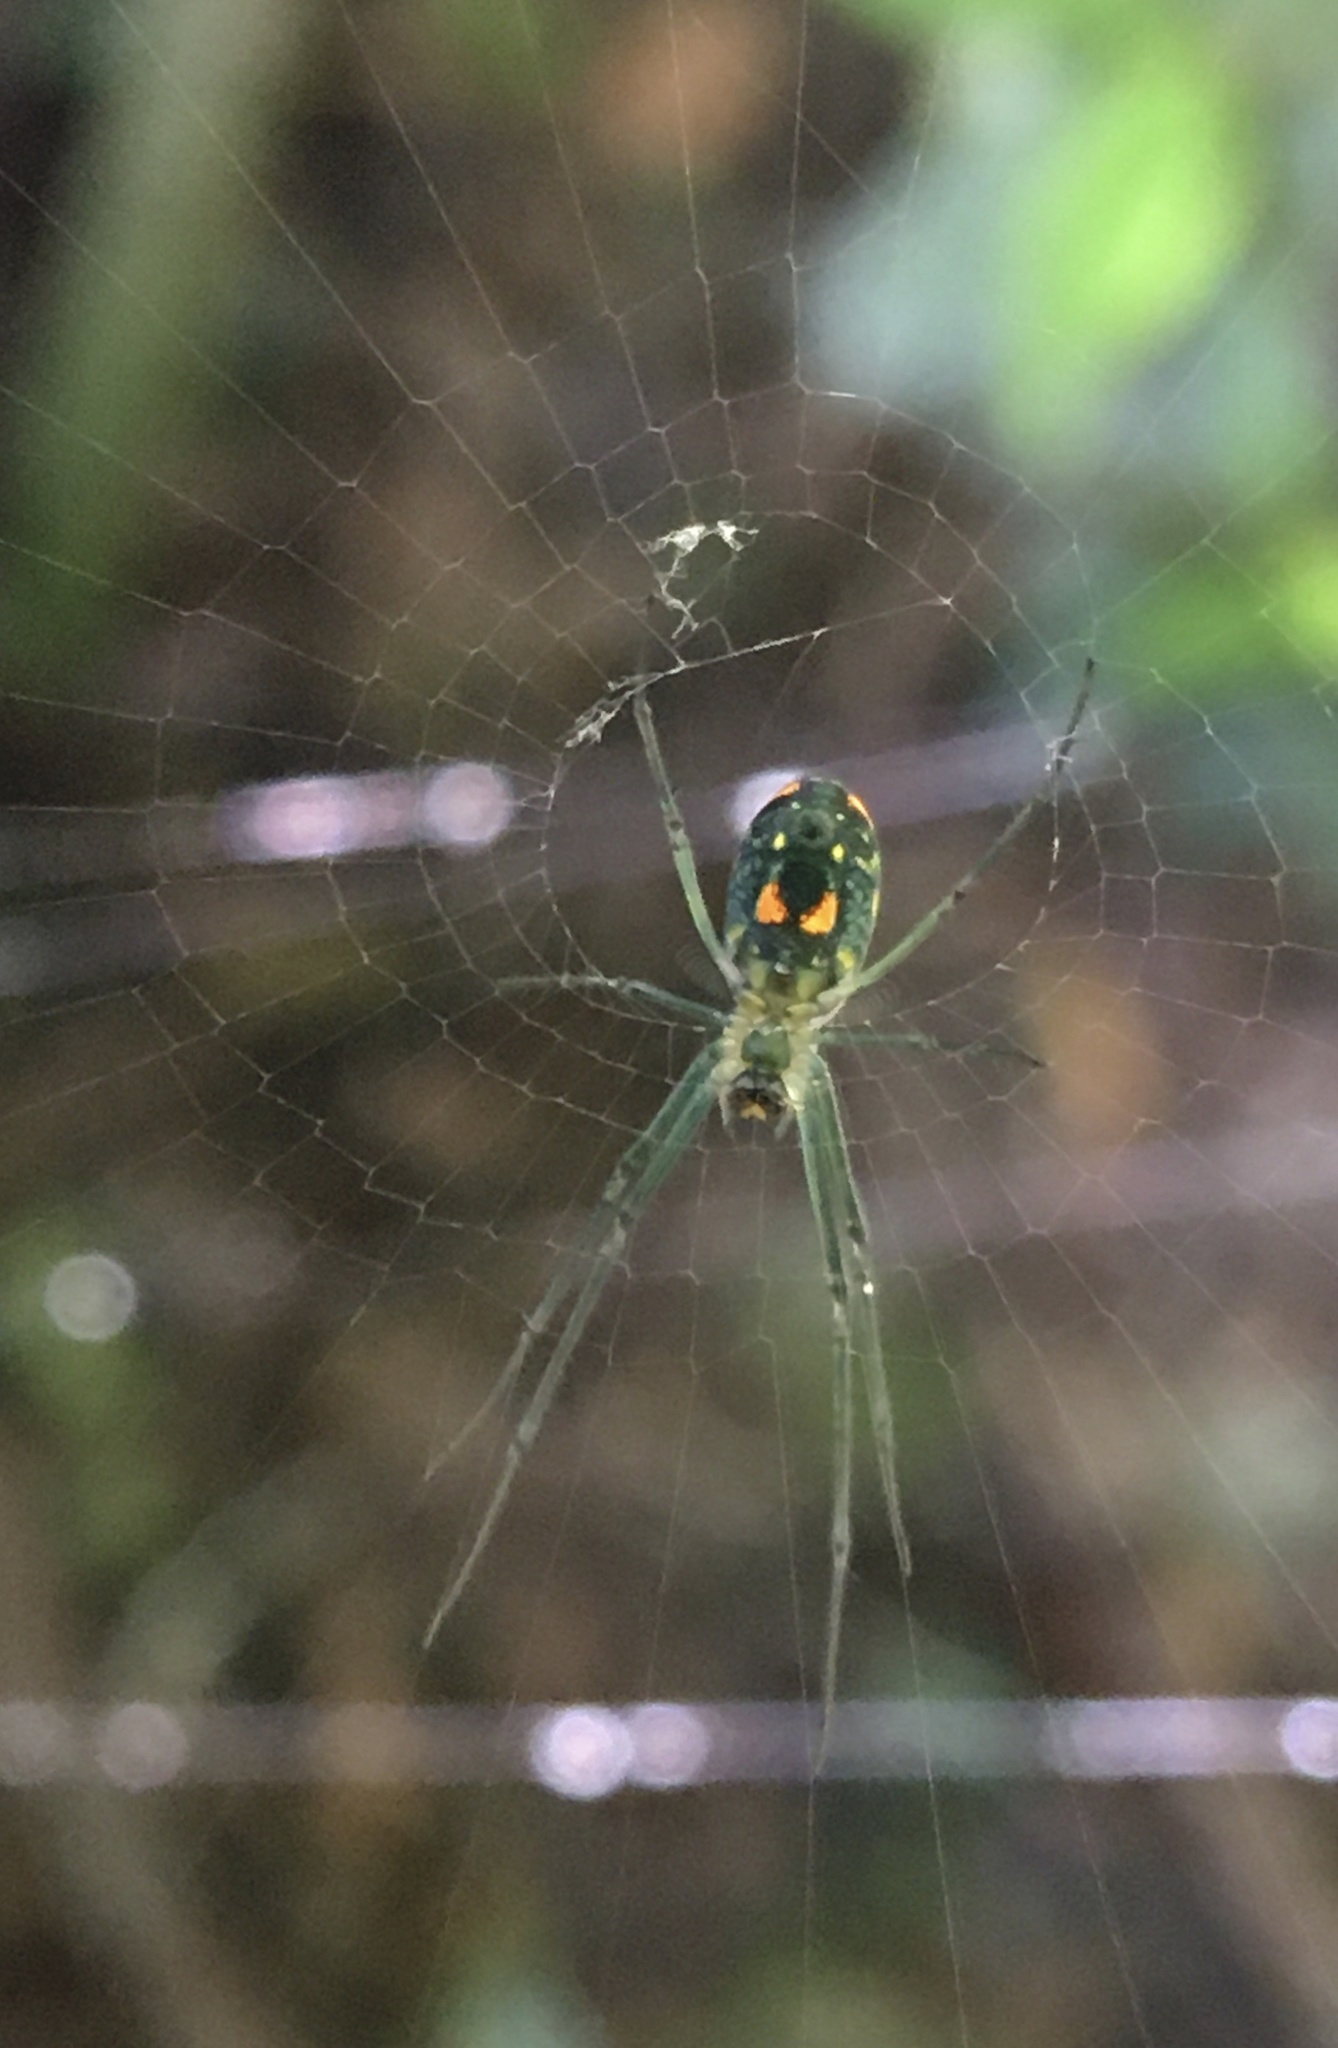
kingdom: Animalia
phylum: Arthropoda
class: Arachnida
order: Araneae
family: Tetragnathidae
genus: Leucauge
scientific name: Leucauge argyrobapta
